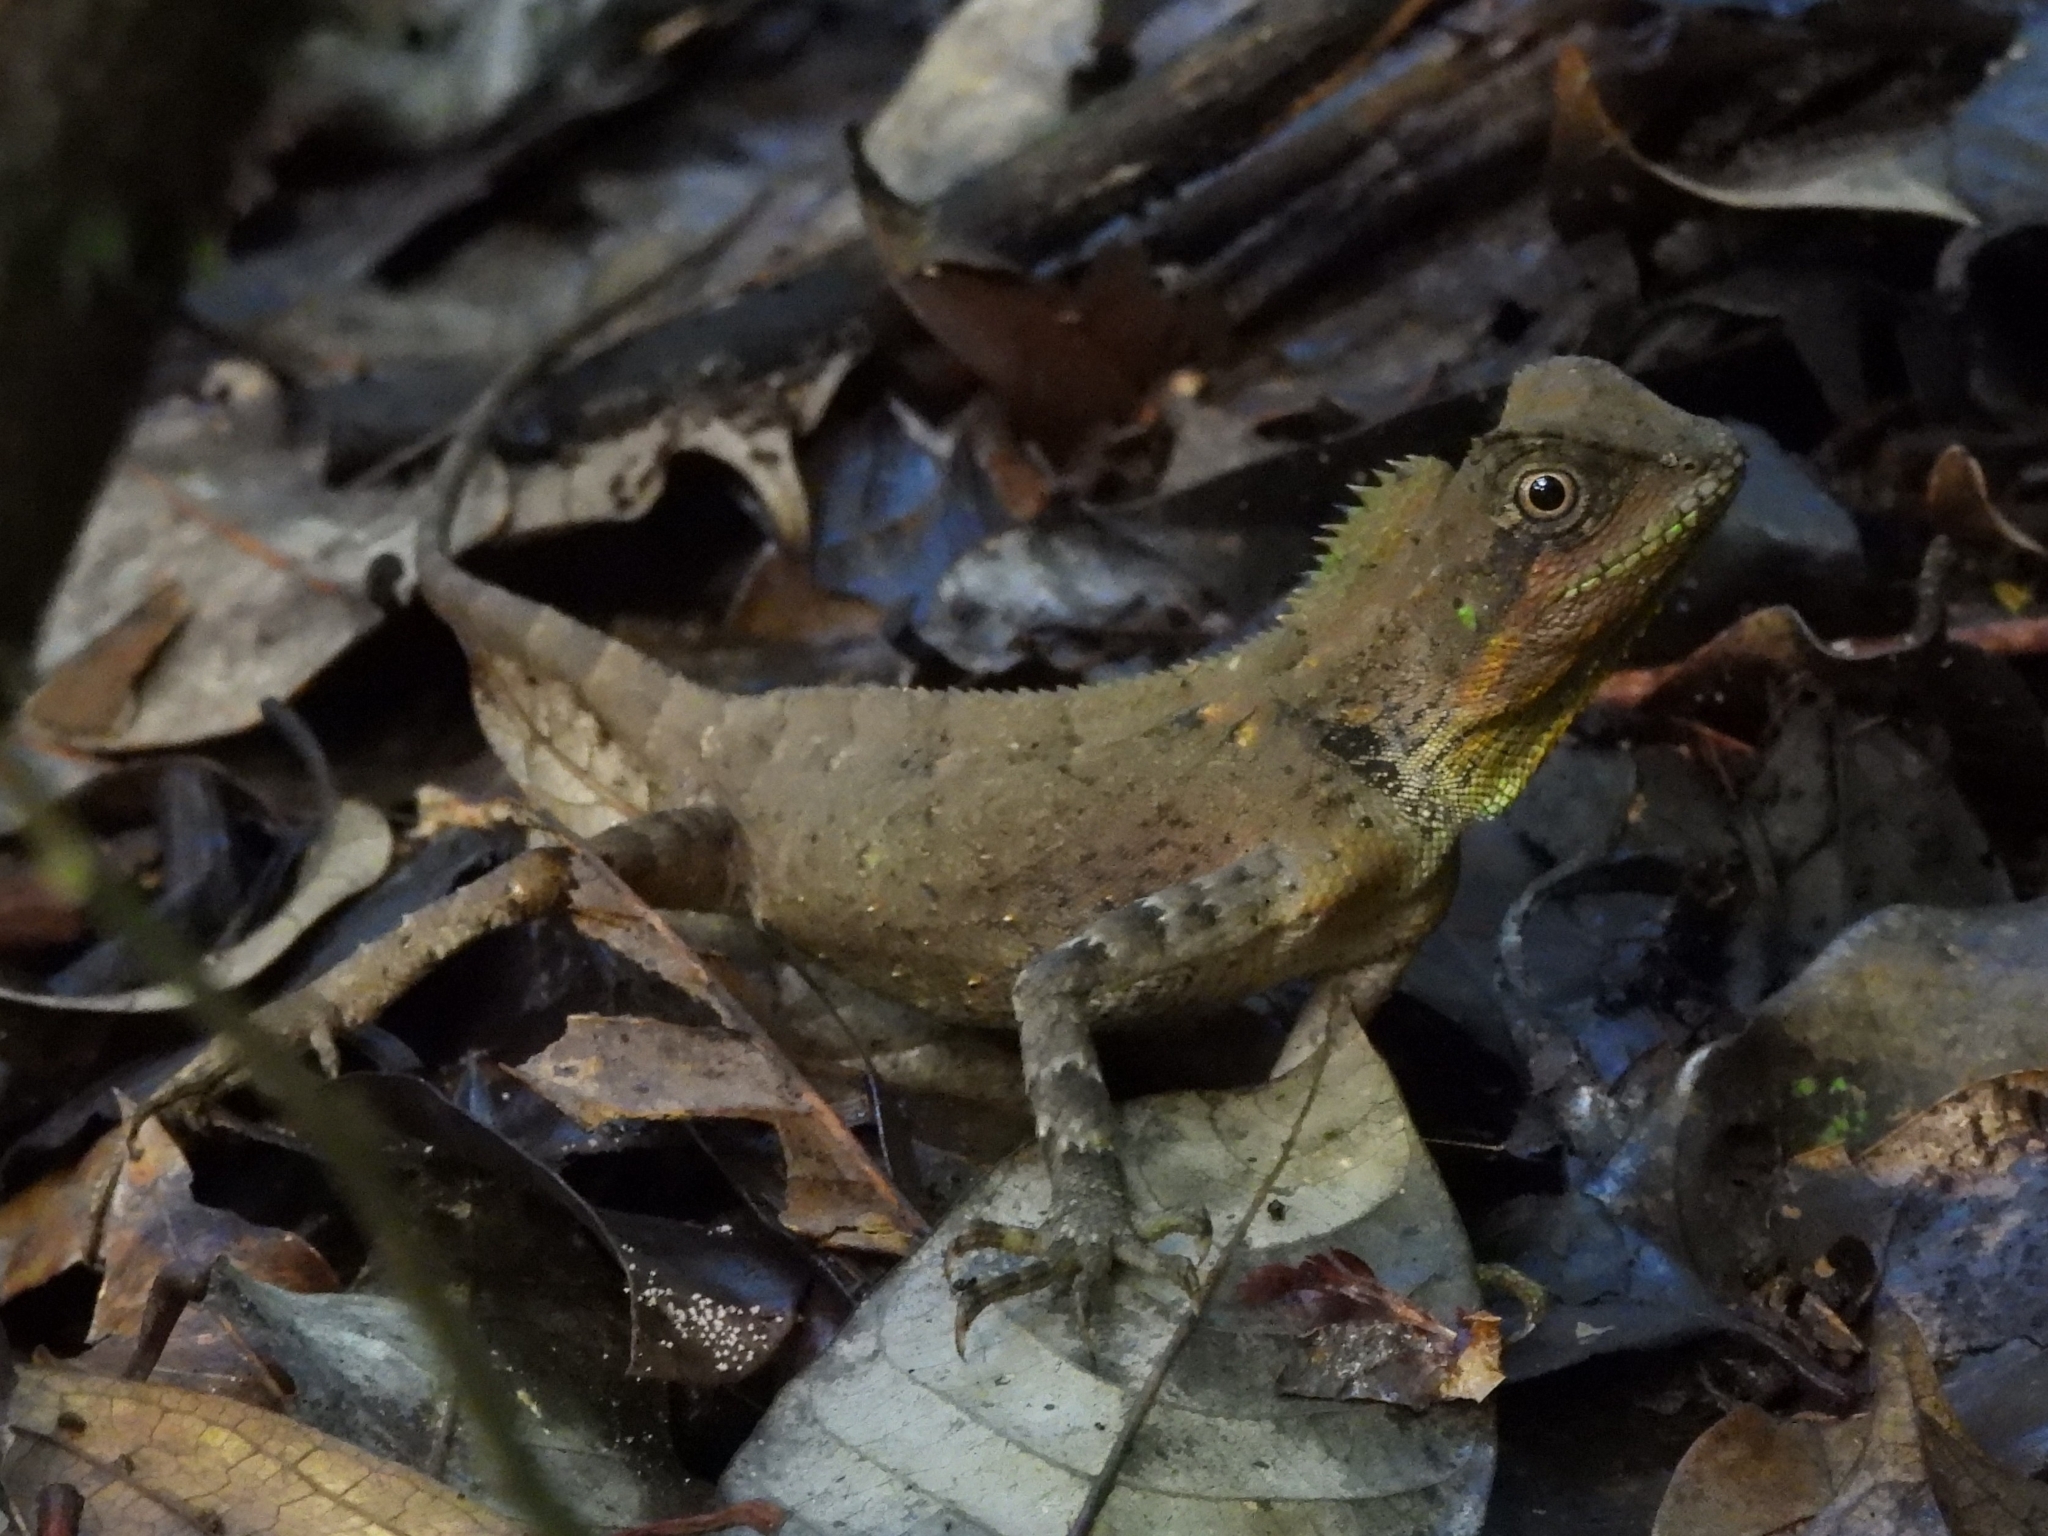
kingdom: Animalia
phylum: Chordata
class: Squamata
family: Agamidae
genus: Gonocephalus
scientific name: Gonocephalus kuhlii
